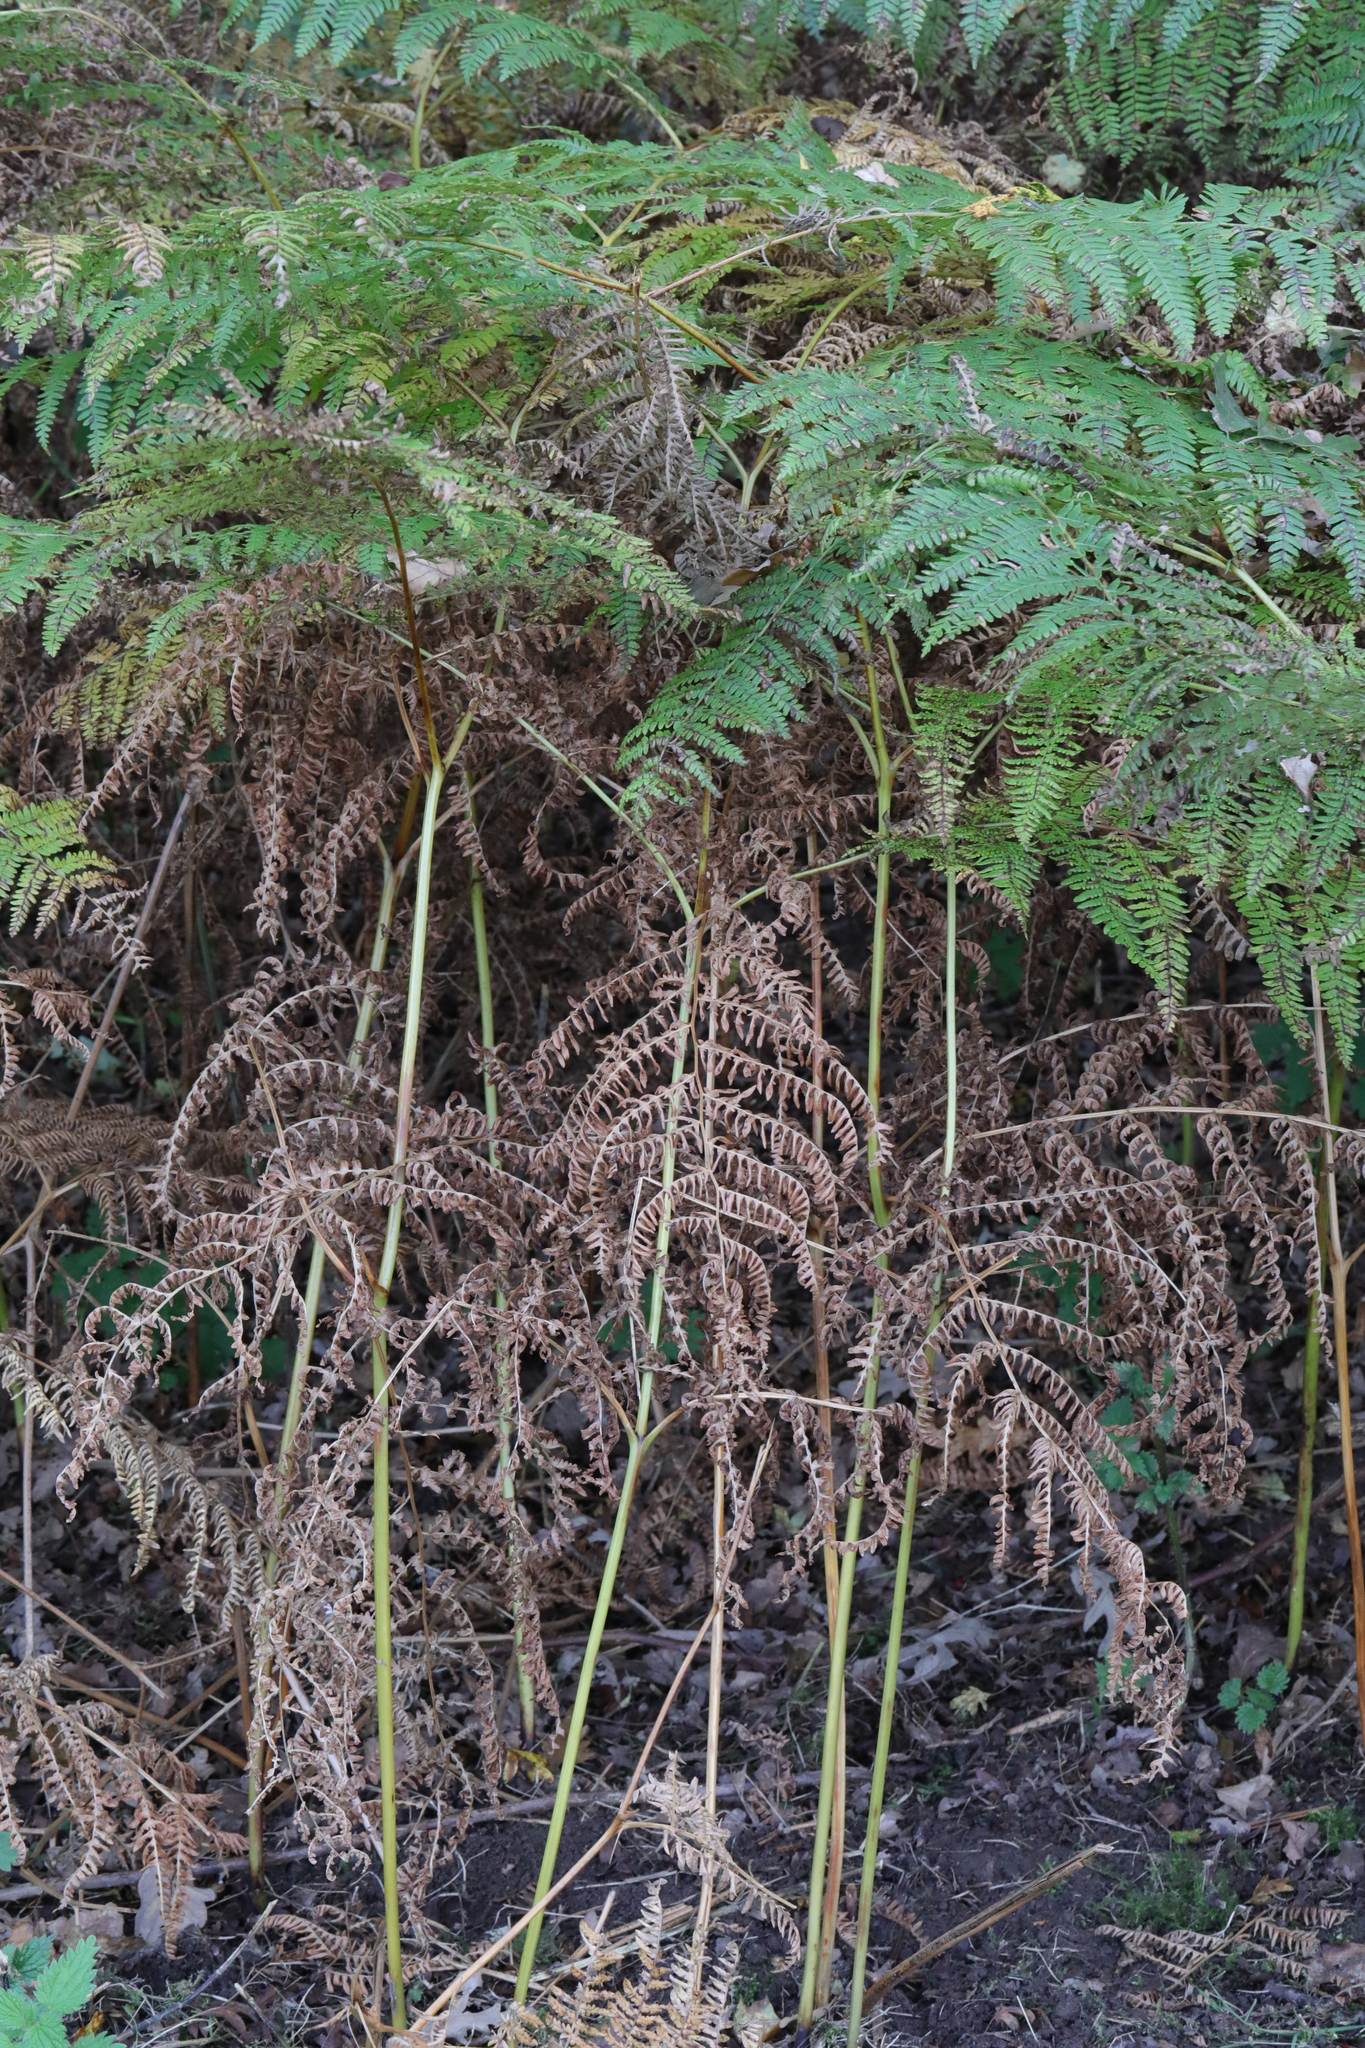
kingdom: Plantae
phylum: Tracheophyta
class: Polypodiopsida
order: Polypodiales
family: Dennstaedtiaceae
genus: Pteridium
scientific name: Pteridium aquilinum
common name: Bracken
